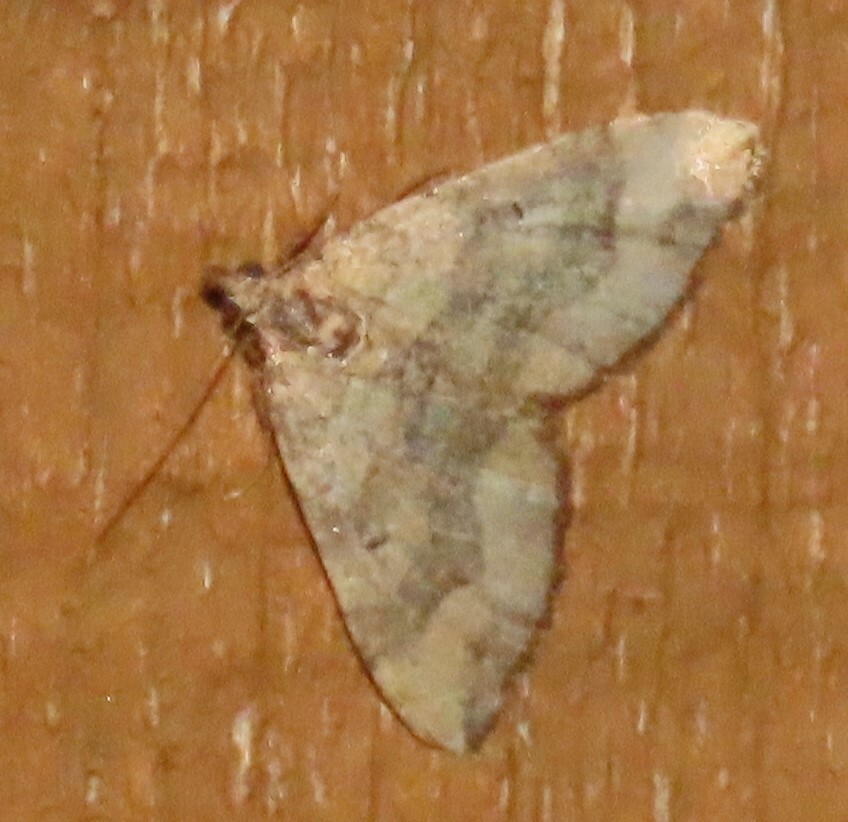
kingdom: Animalia
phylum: Arthropoda
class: Insecta
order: Lepidoptera
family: Geometridae
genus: Epyaxa
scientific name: Epyaxa rosearia
